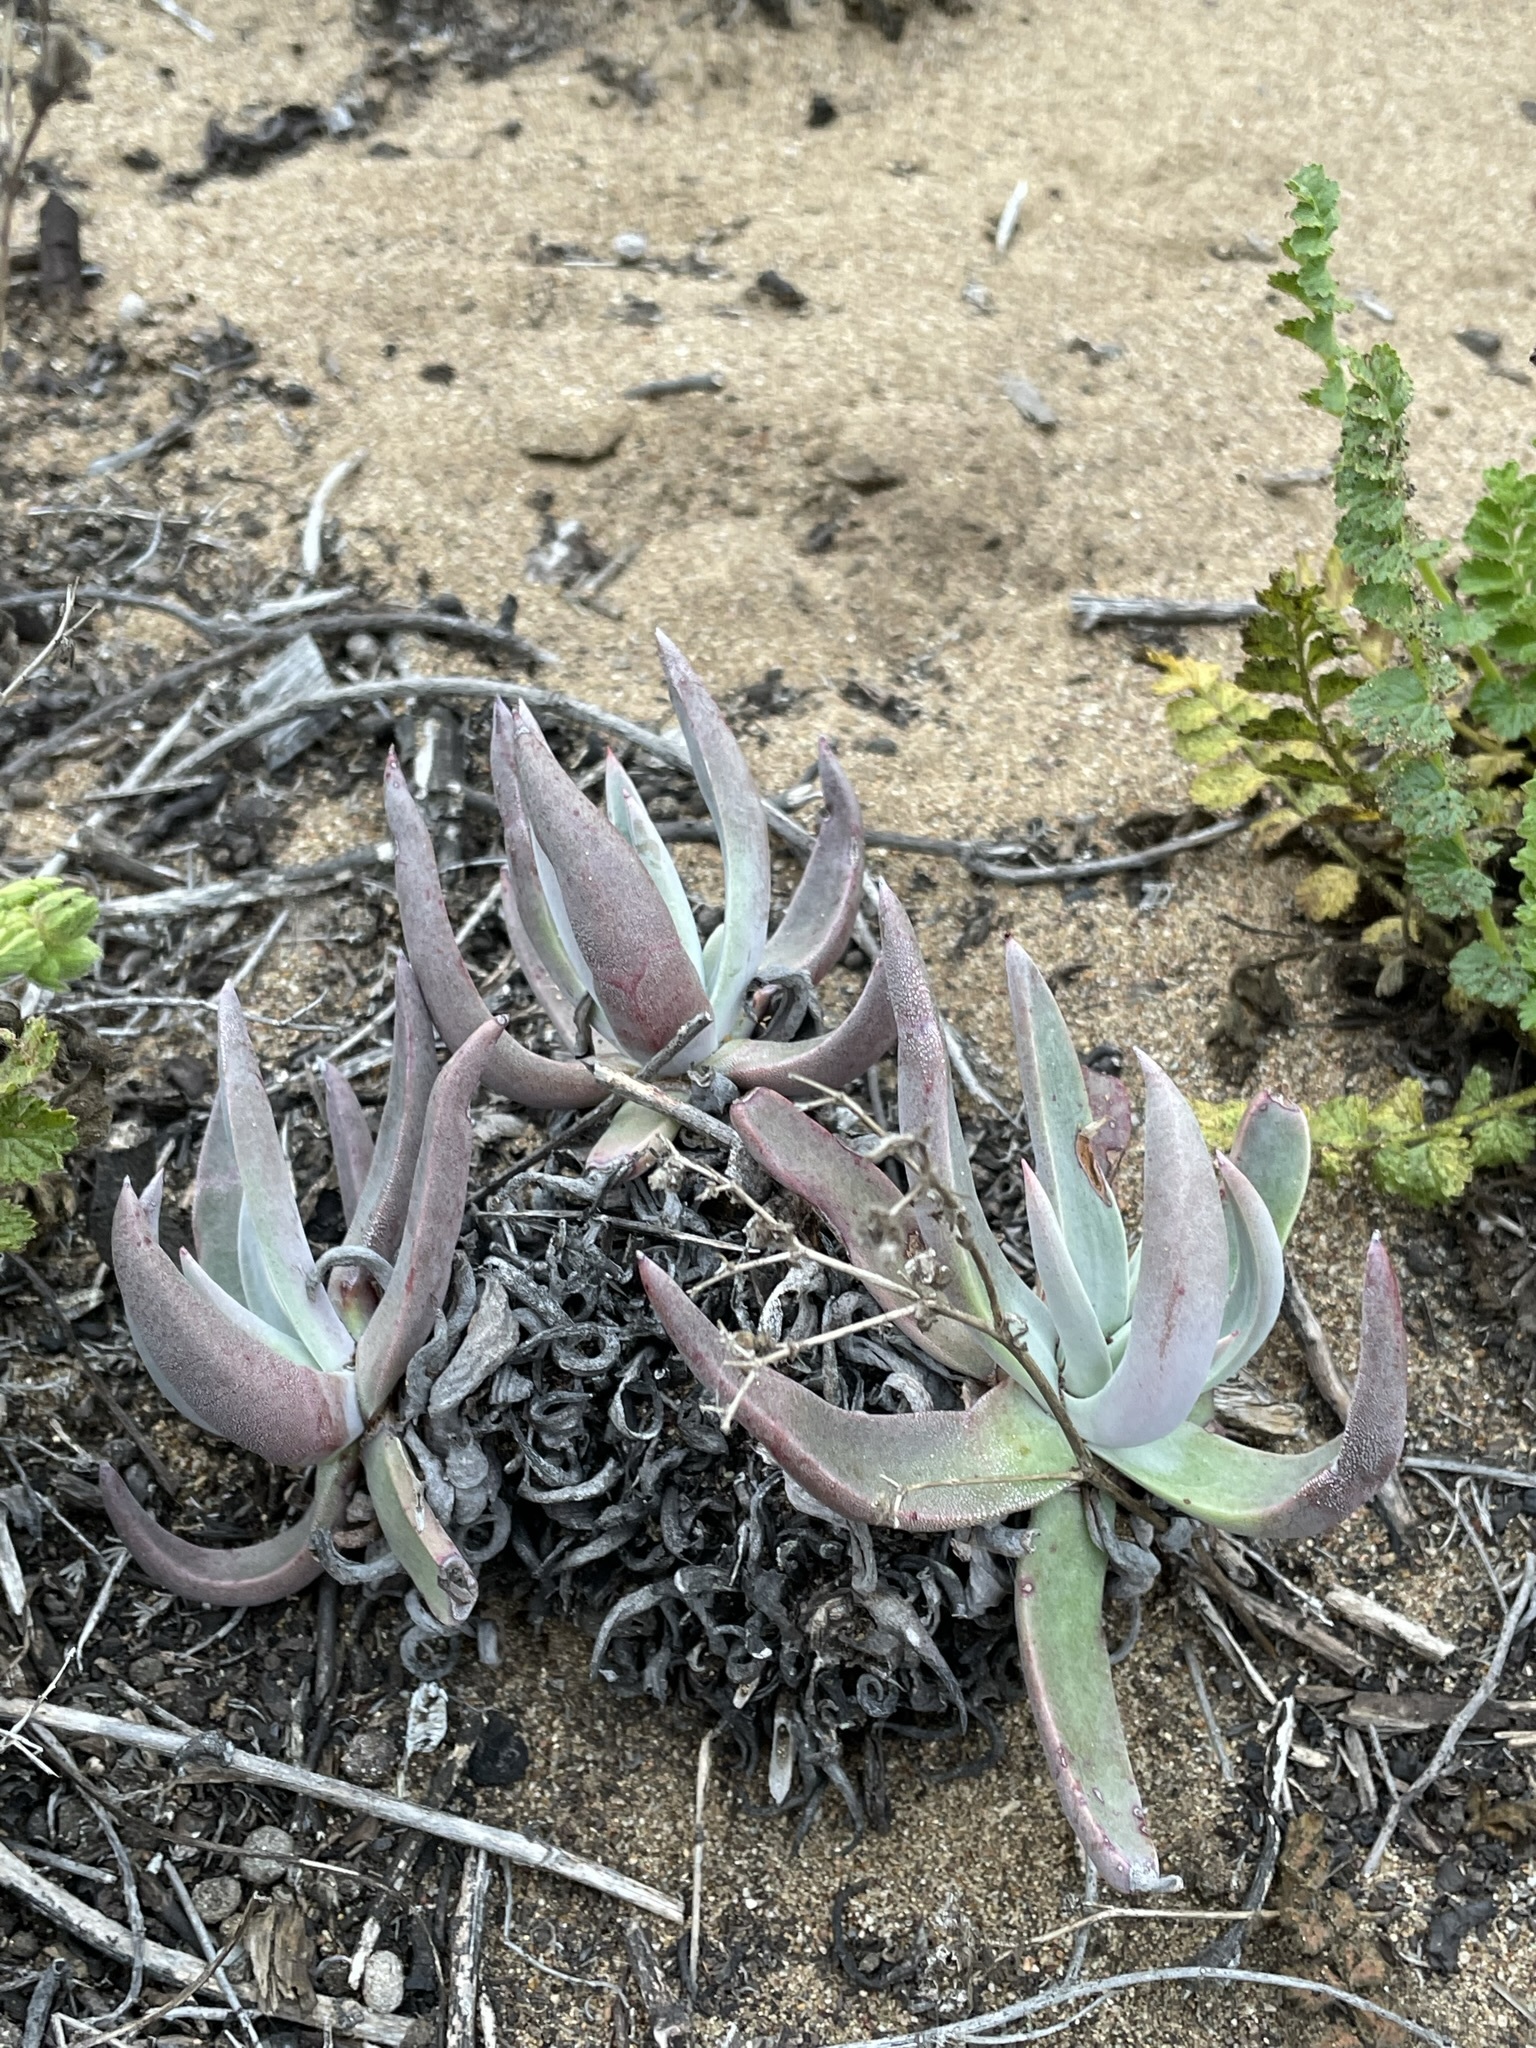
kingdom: Plantae
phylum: Tracheophyta
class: Magnoliopsida
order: Saxifragales
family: Crassulaceae
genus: Dudleya
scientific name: Dudleya caespitosa
